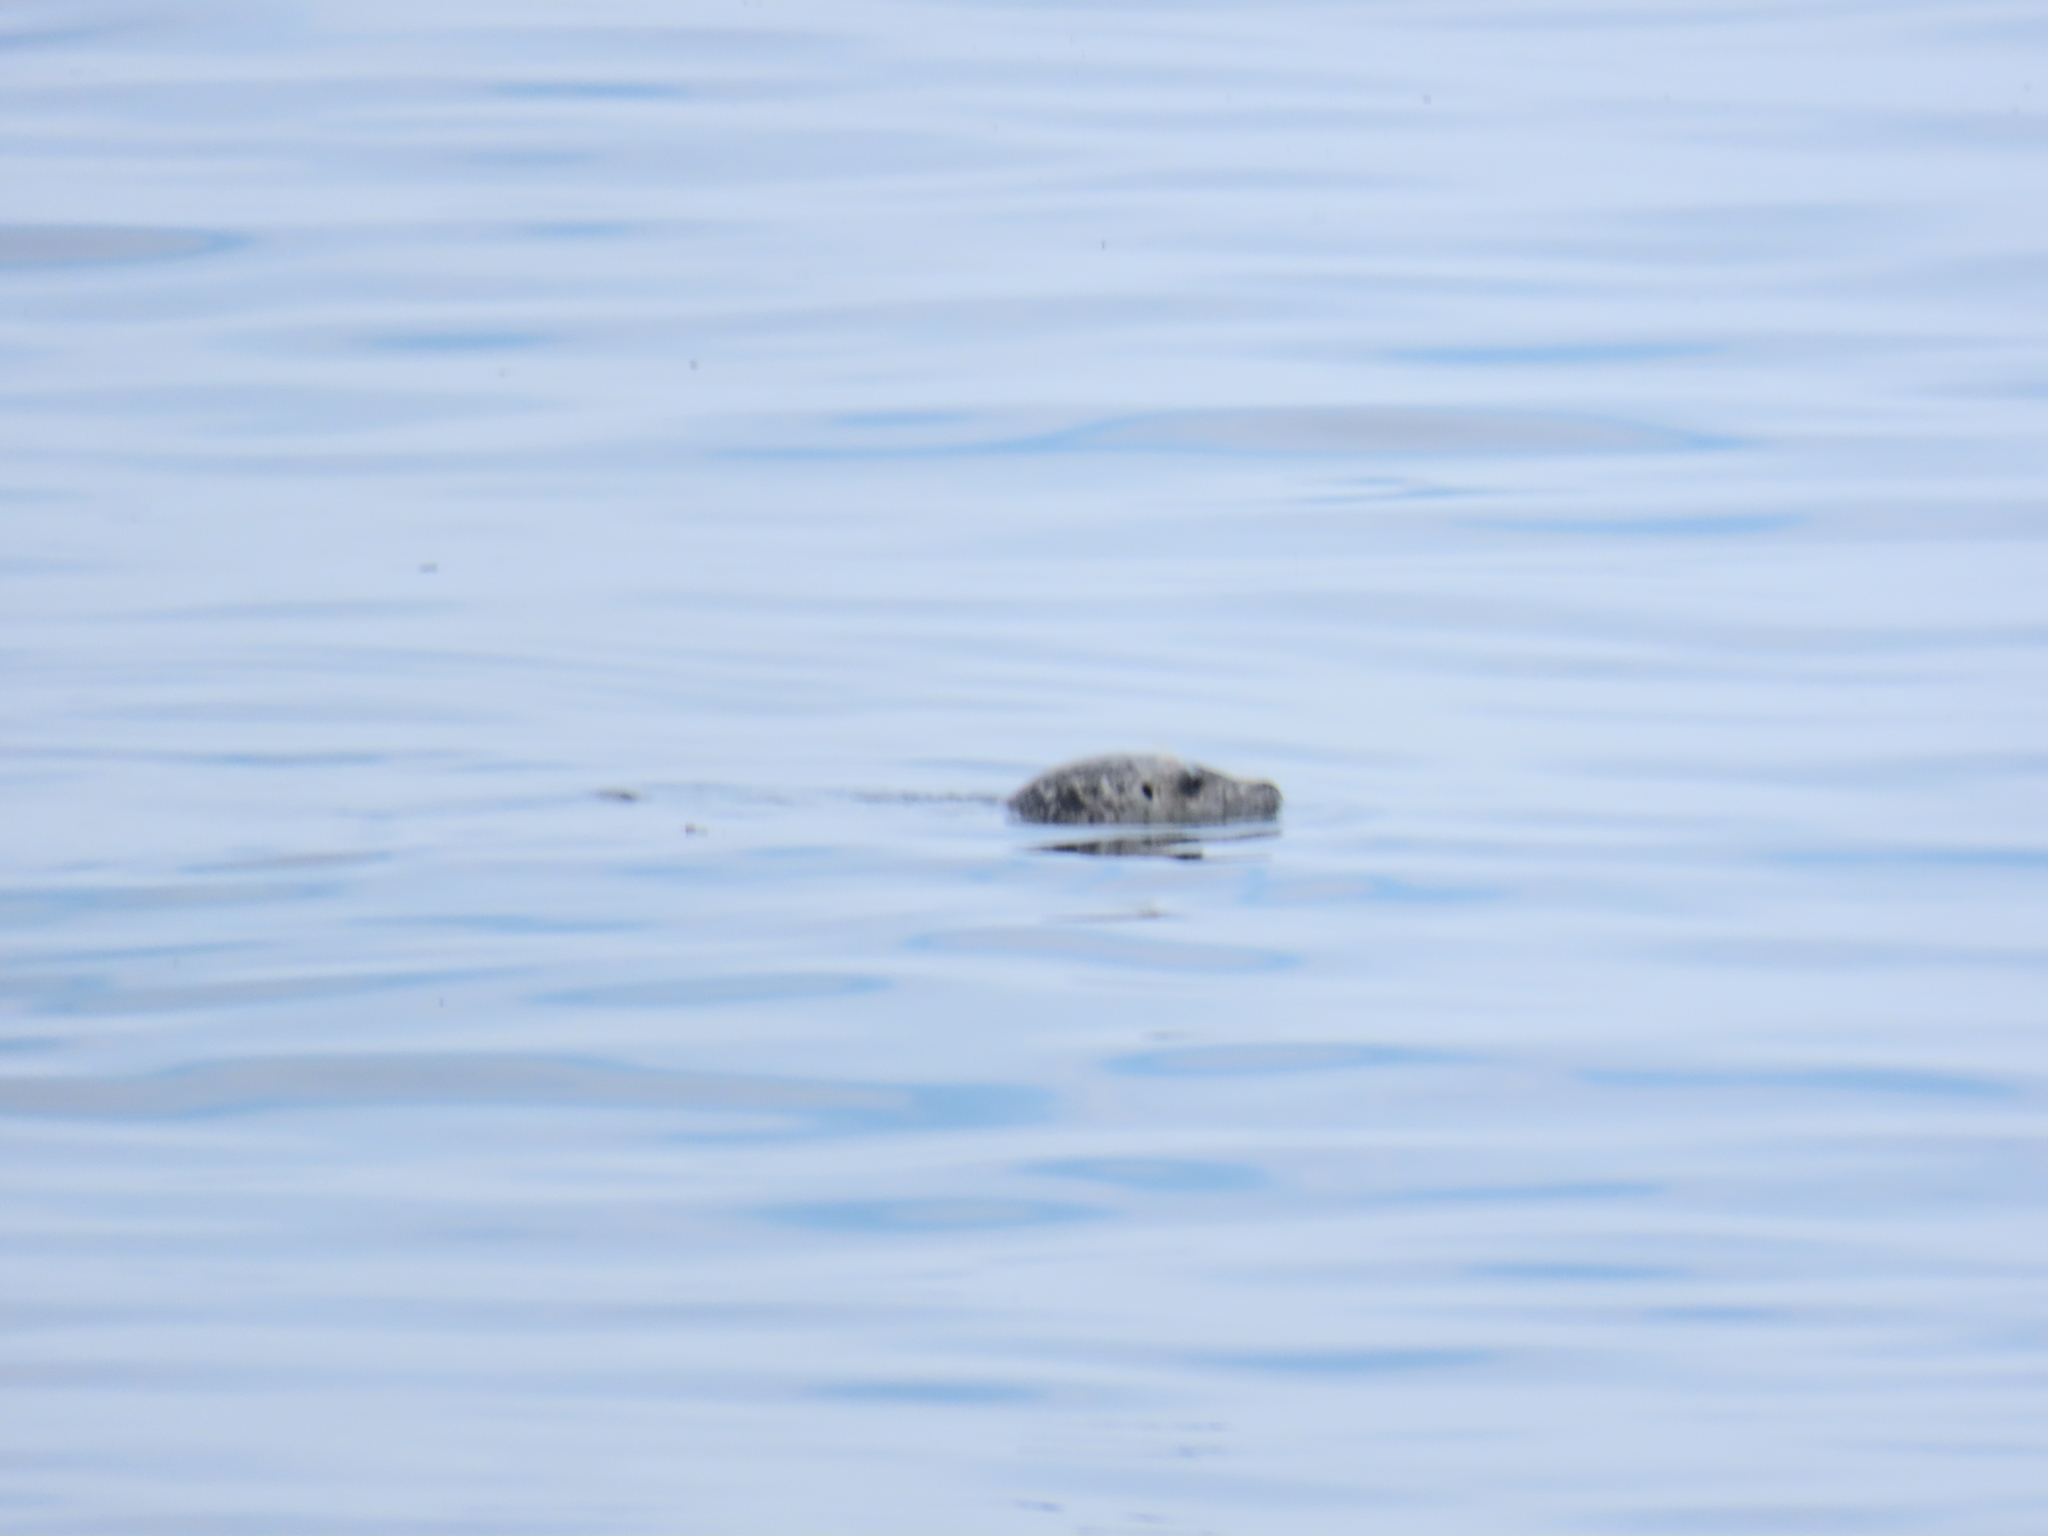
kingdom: Animalia
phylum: Chordata
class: Mammalia
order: Carnivora
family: Phocidae
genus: Phoca
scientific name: Phoca vitulina
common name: Harbor seal
